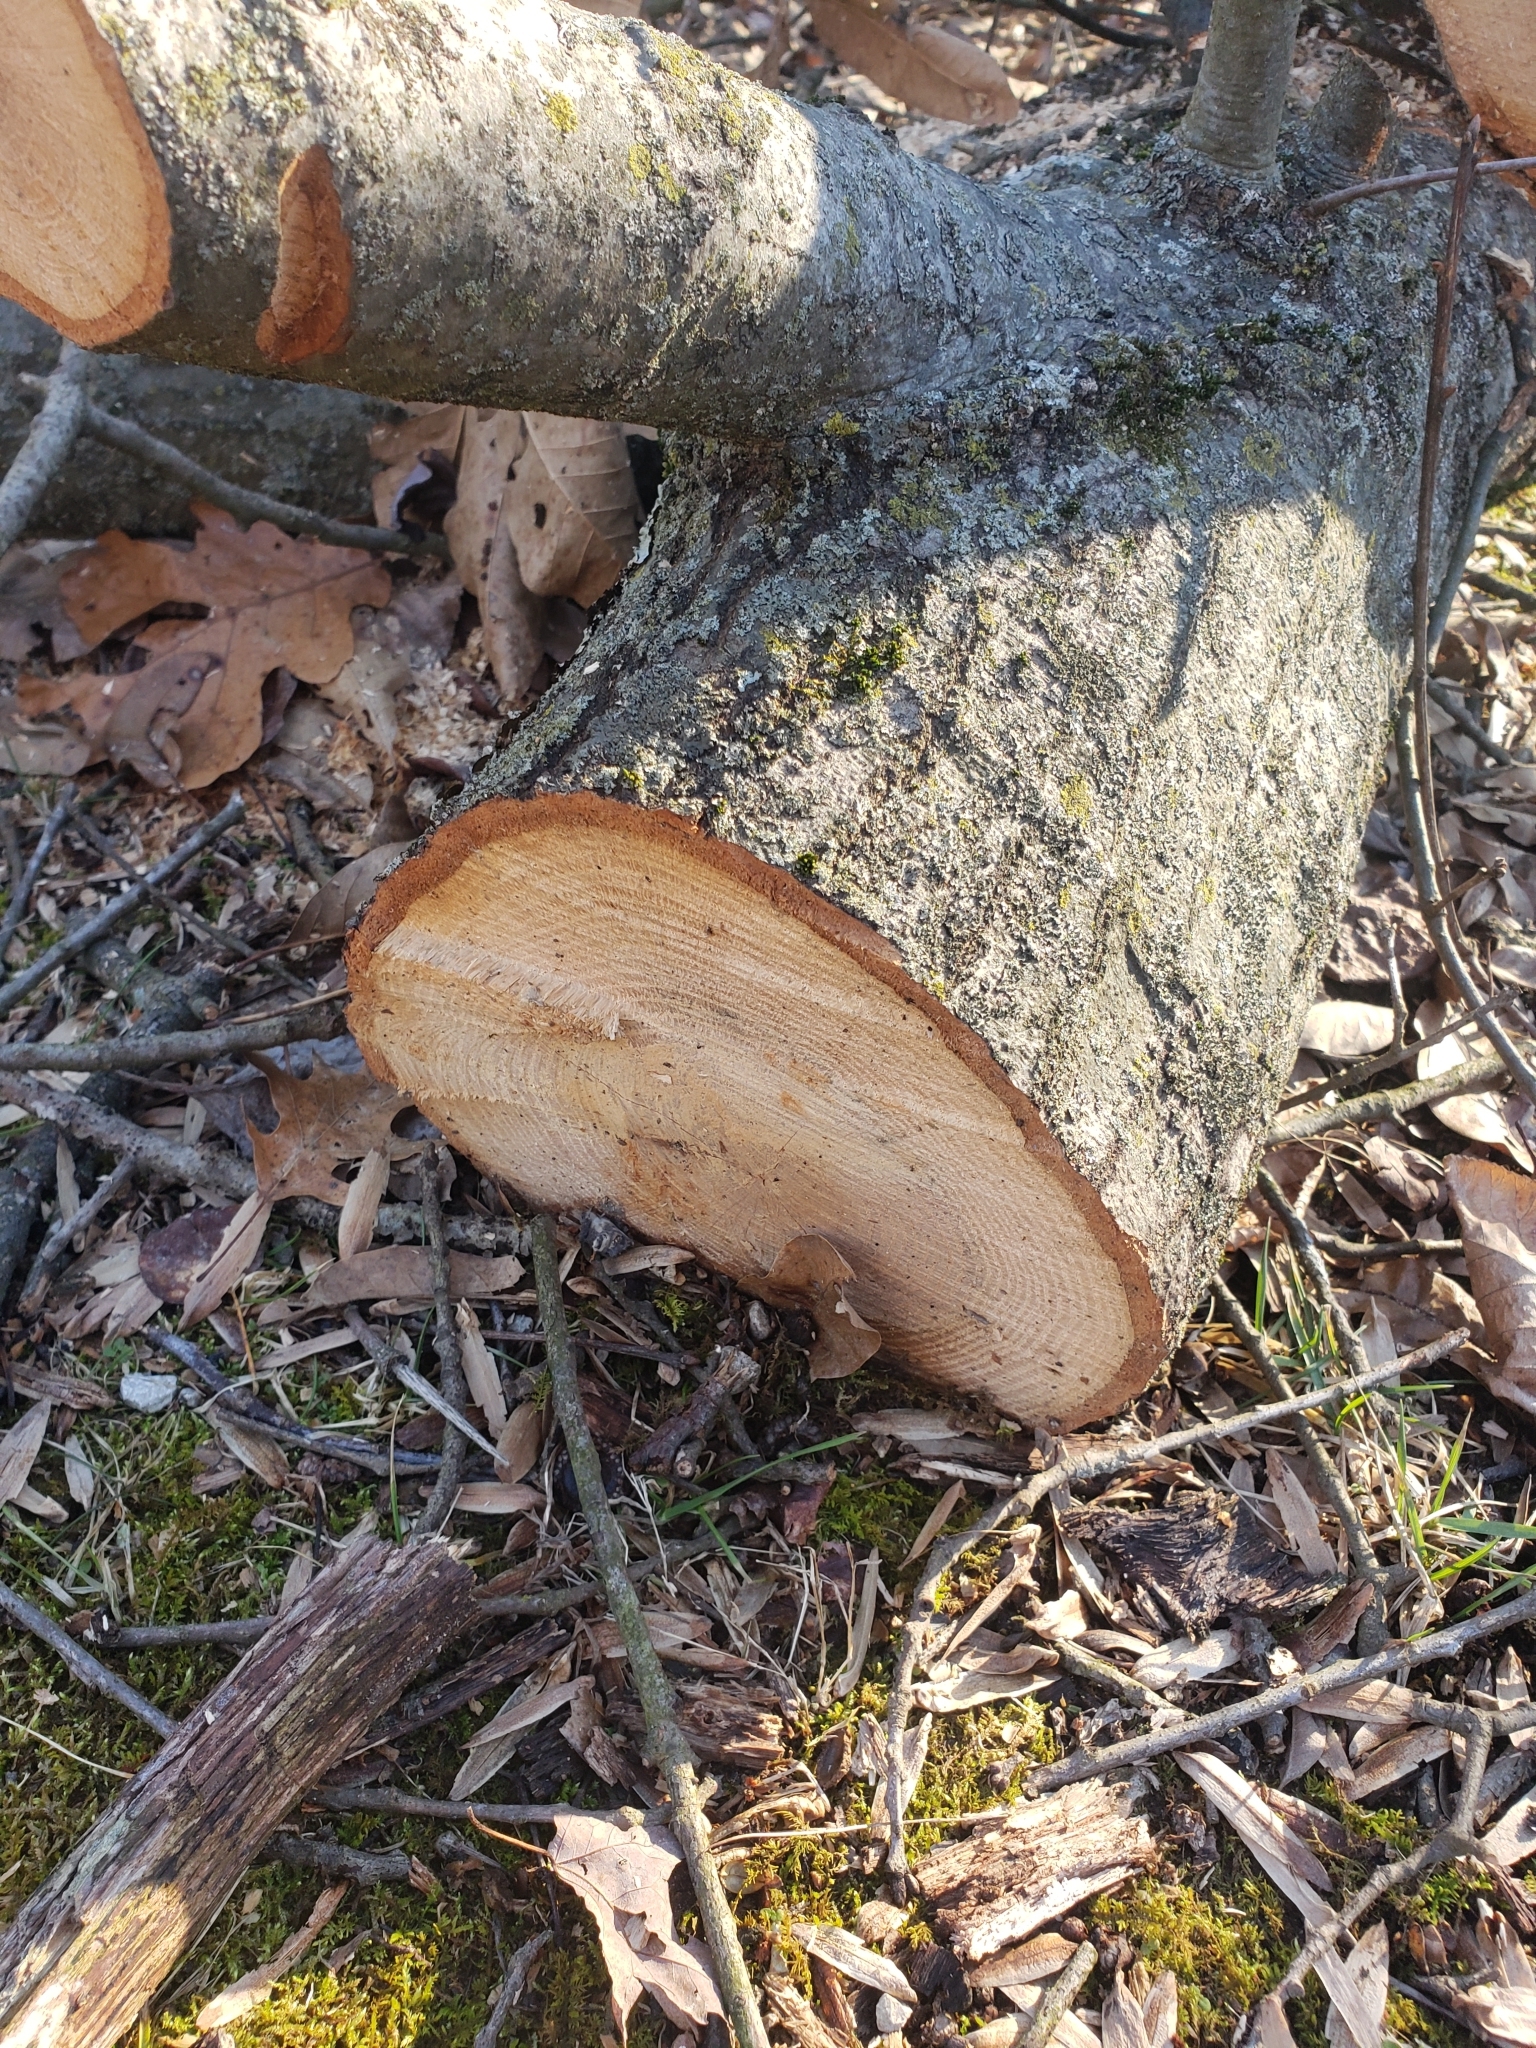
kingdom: Plantae
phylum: Tracheophyta
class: Magnoliopsida
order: Fagales
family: Fagaceae
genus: Quercus
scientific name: Quercus imbricaria
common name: Shingle oak
